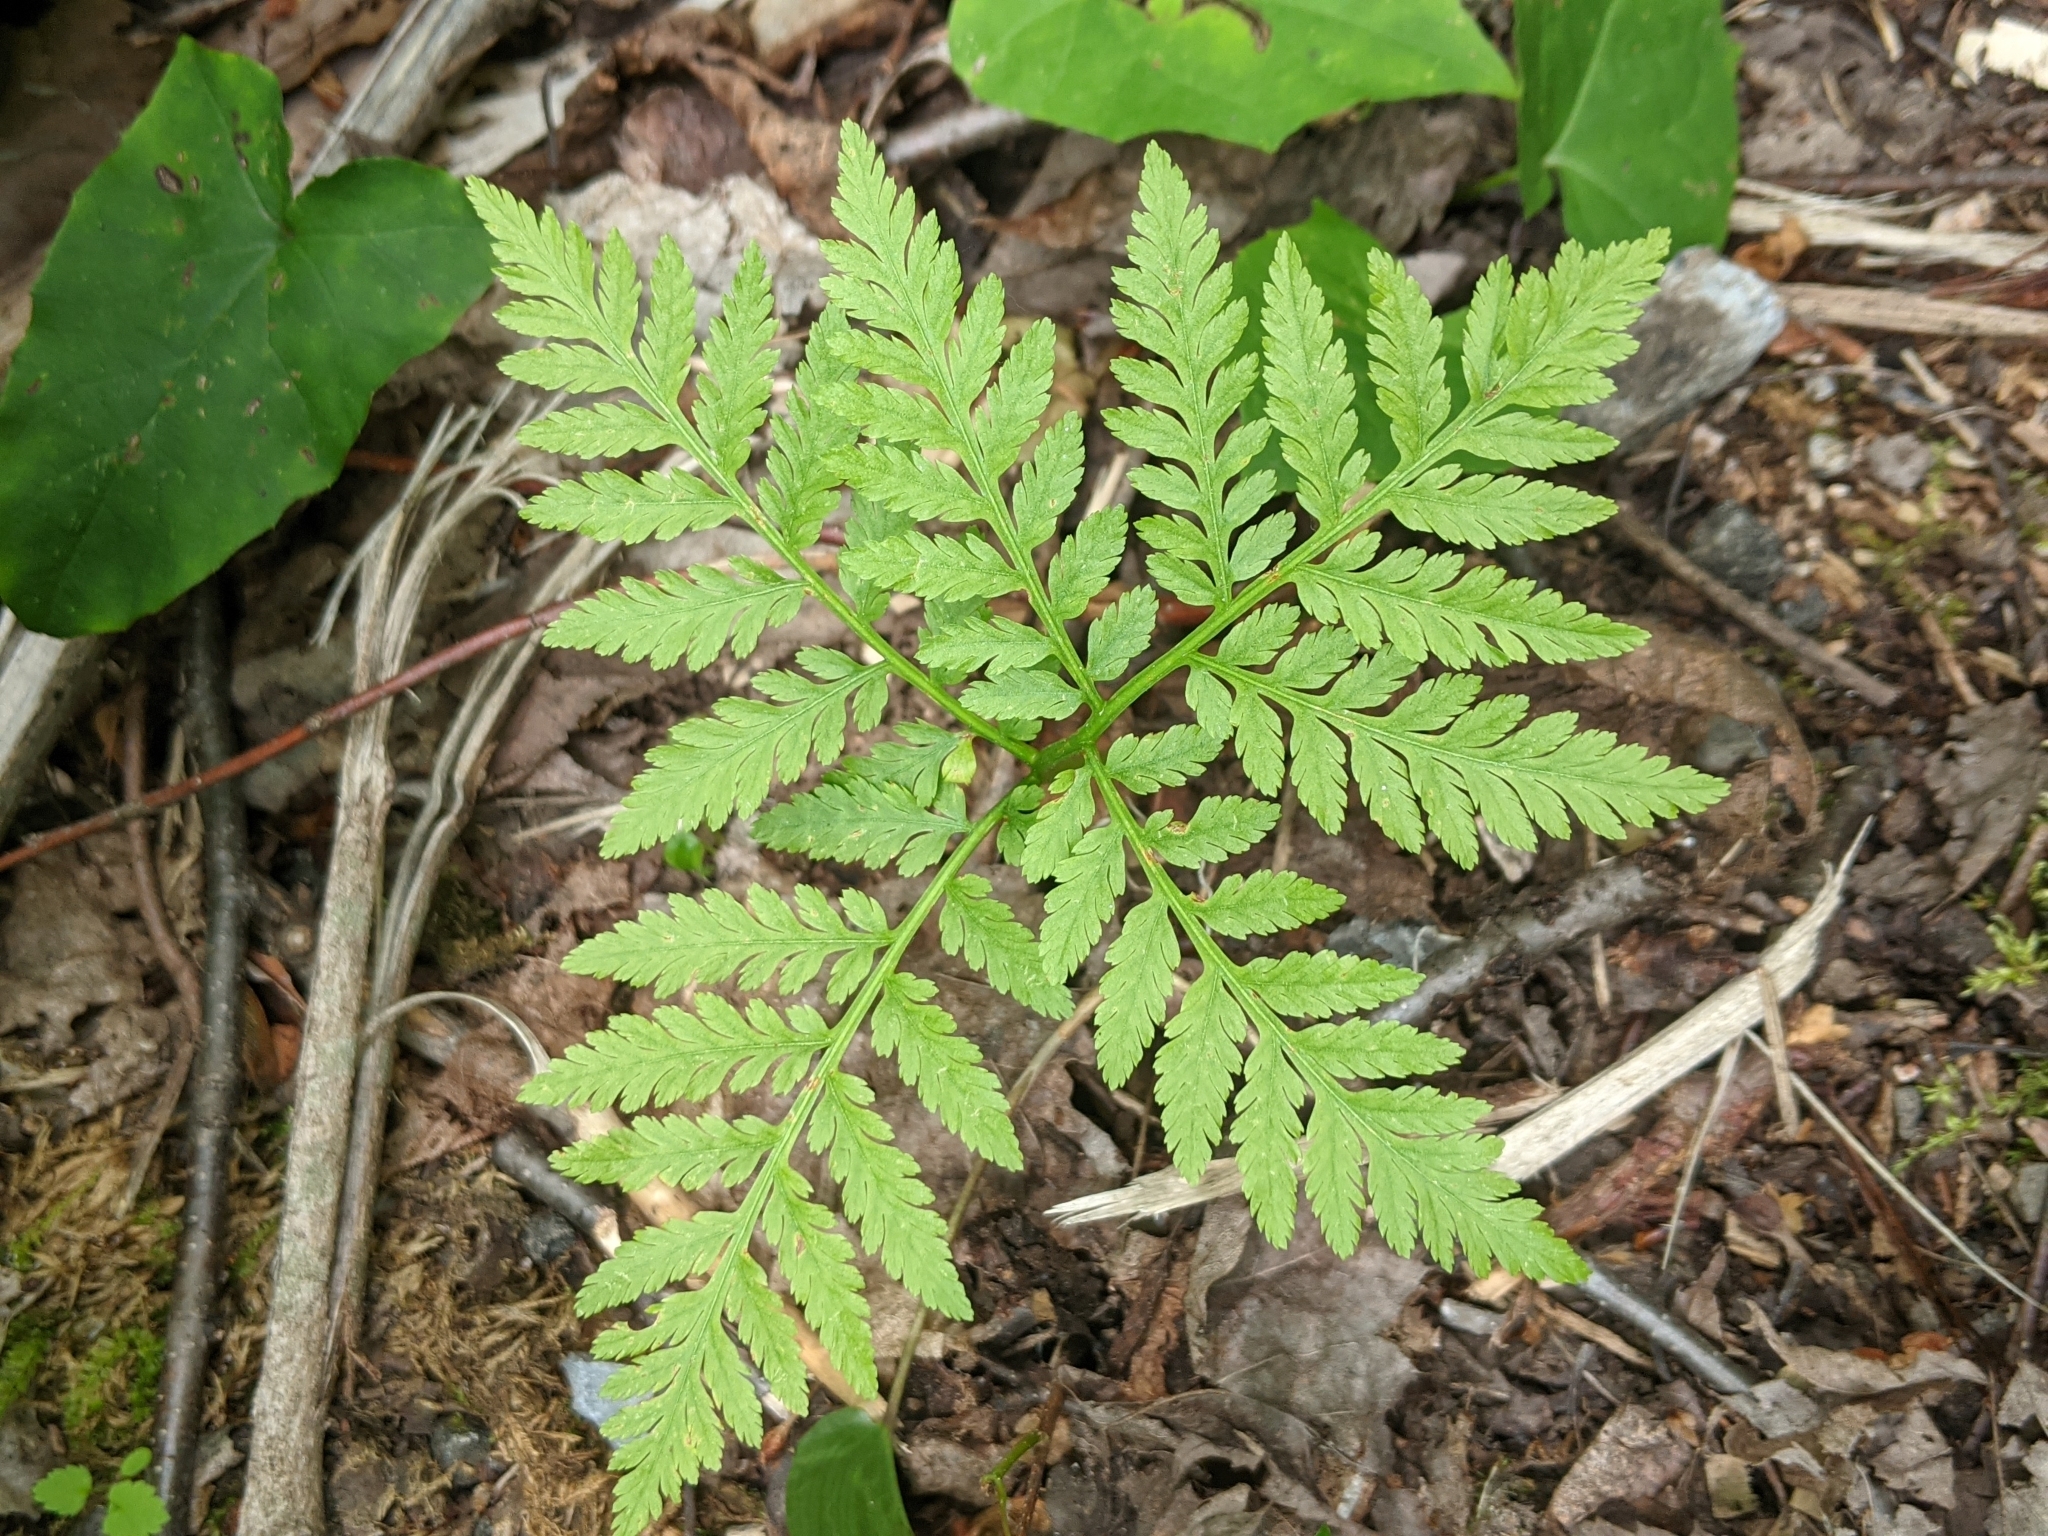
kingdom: Plantae
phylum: Tracheophyta
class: Polypodiopsida
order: Ophioglossales
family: Ophioglossaceae
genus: Botrypus
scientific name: Botrypus virginianus
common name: Common grapefern
